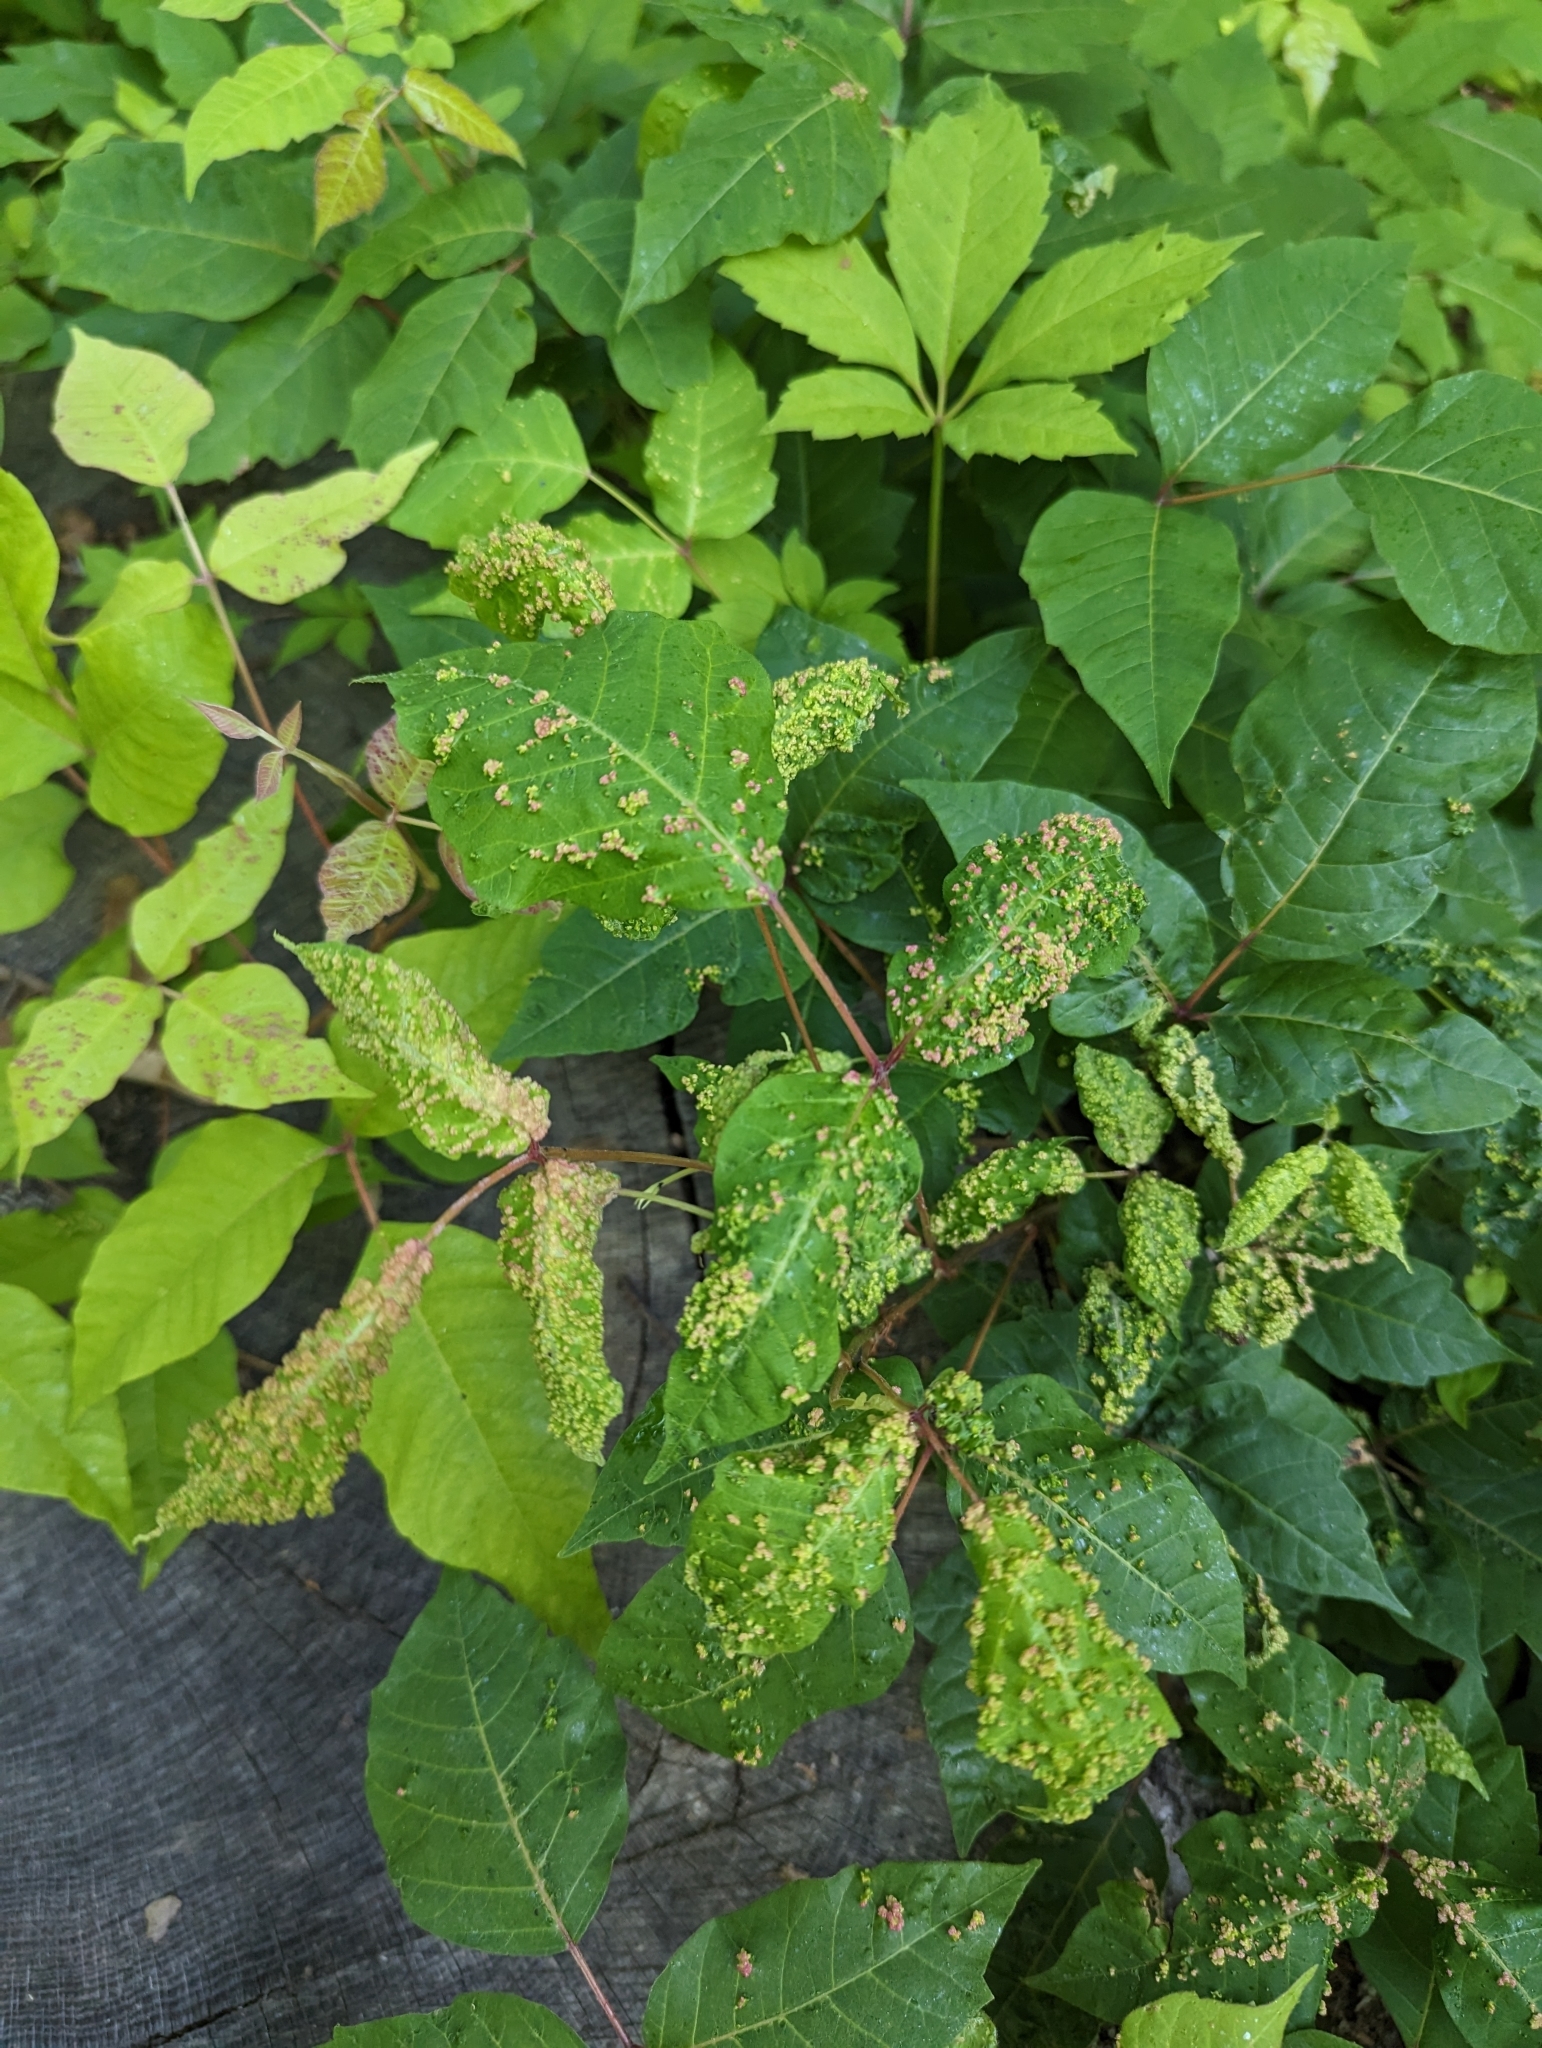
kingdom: Animalia
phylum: Arthropoda
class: Arachnida
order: Trombidiformes
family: Eriophyidae
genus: Aculops
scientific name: Aculops
